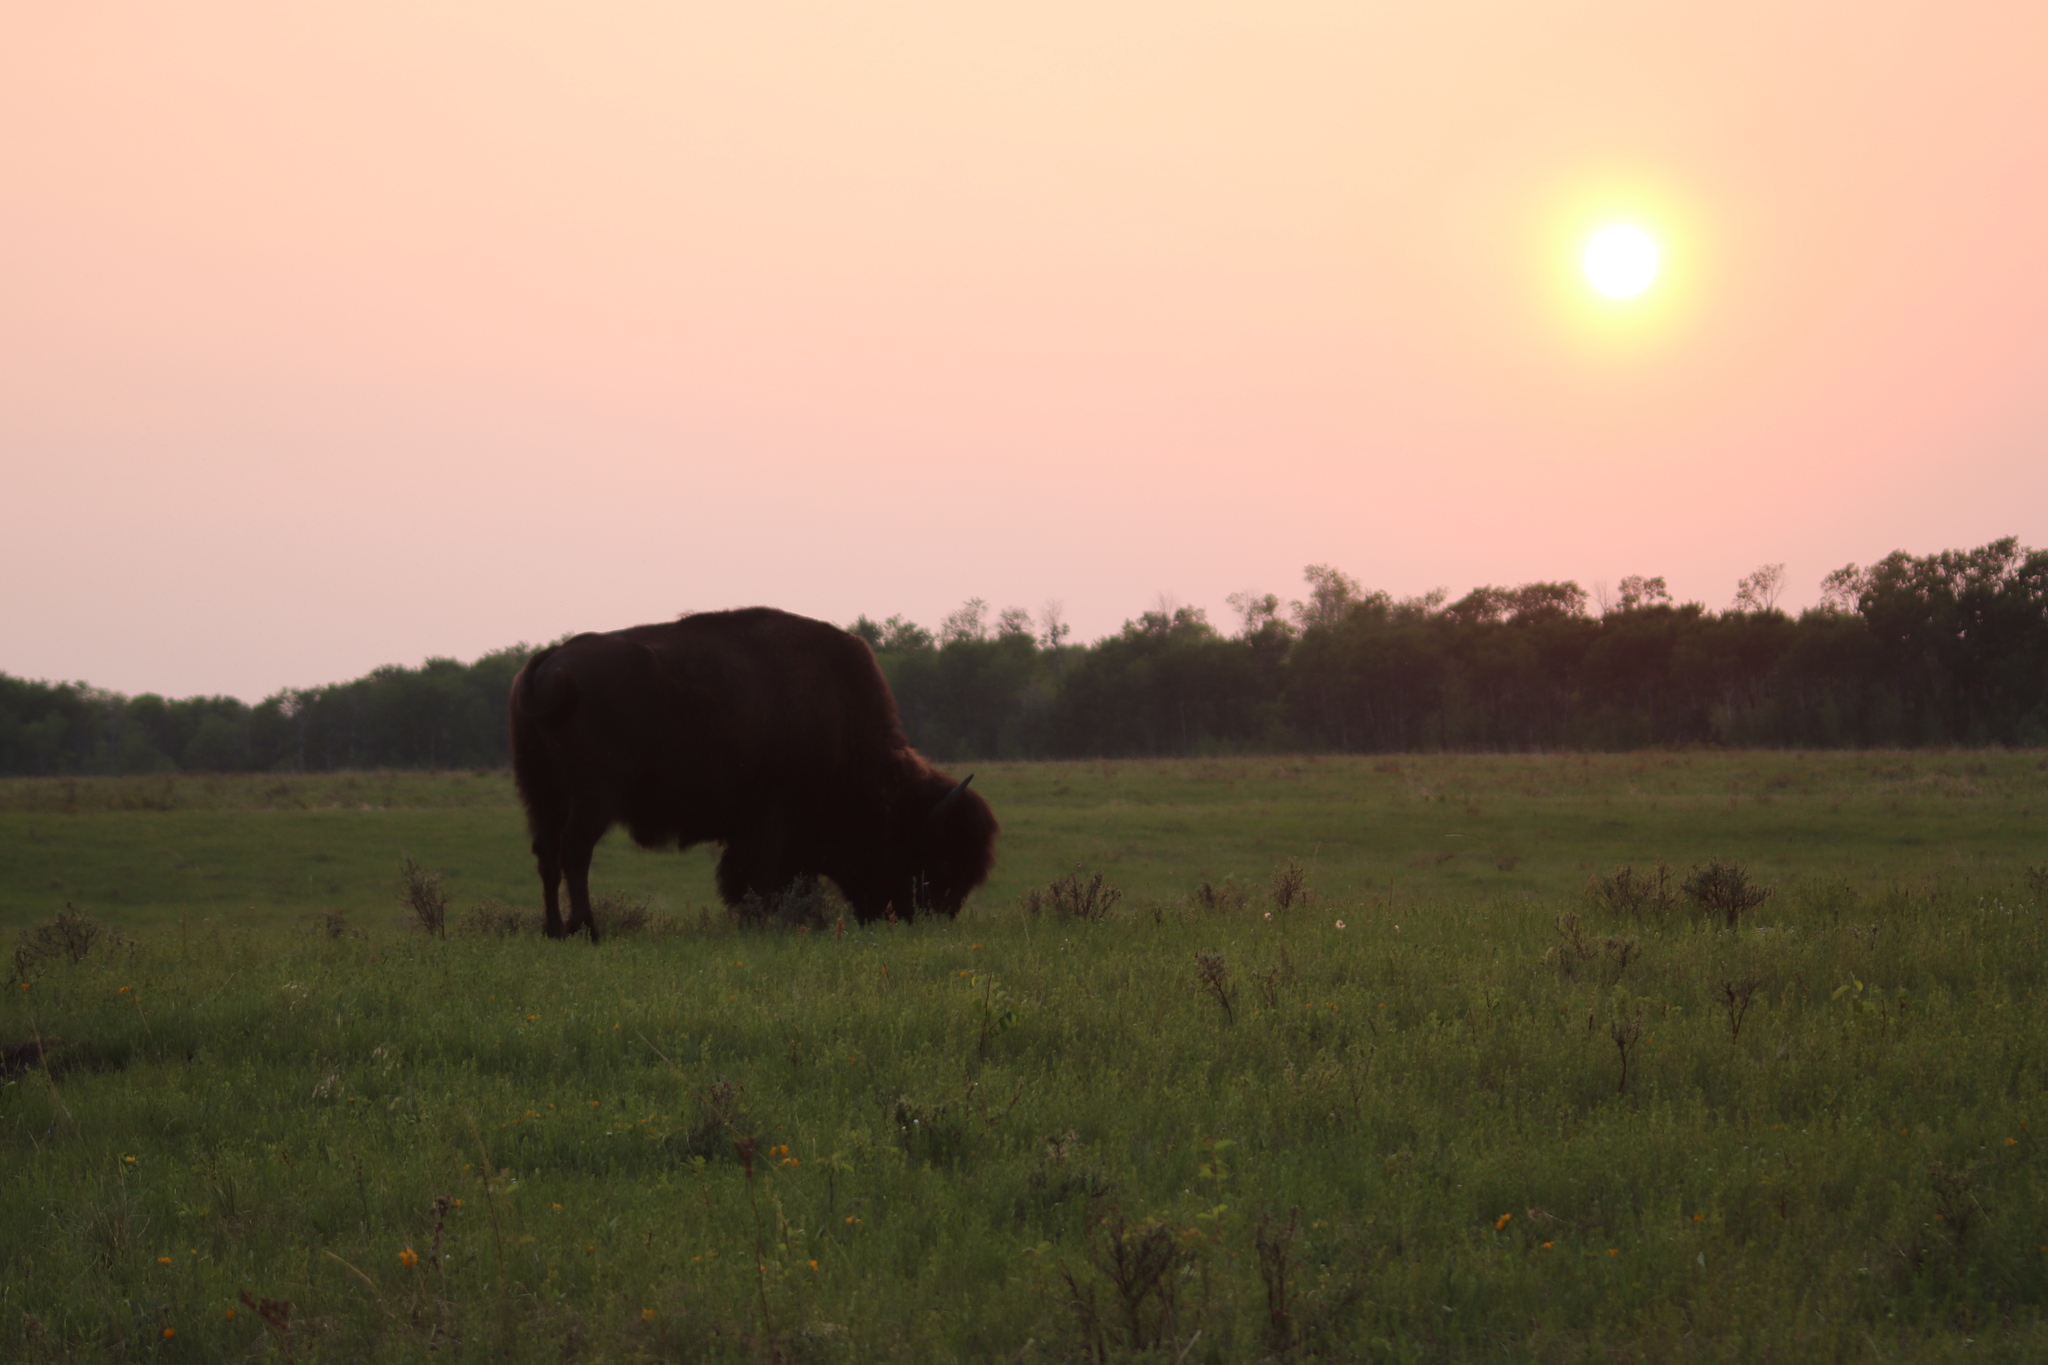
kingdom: Animalia
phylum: Chordata
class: Mammalia
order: Artiodactyla
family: Bovidae
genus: Bison
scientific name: Bison bison
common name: American bison
